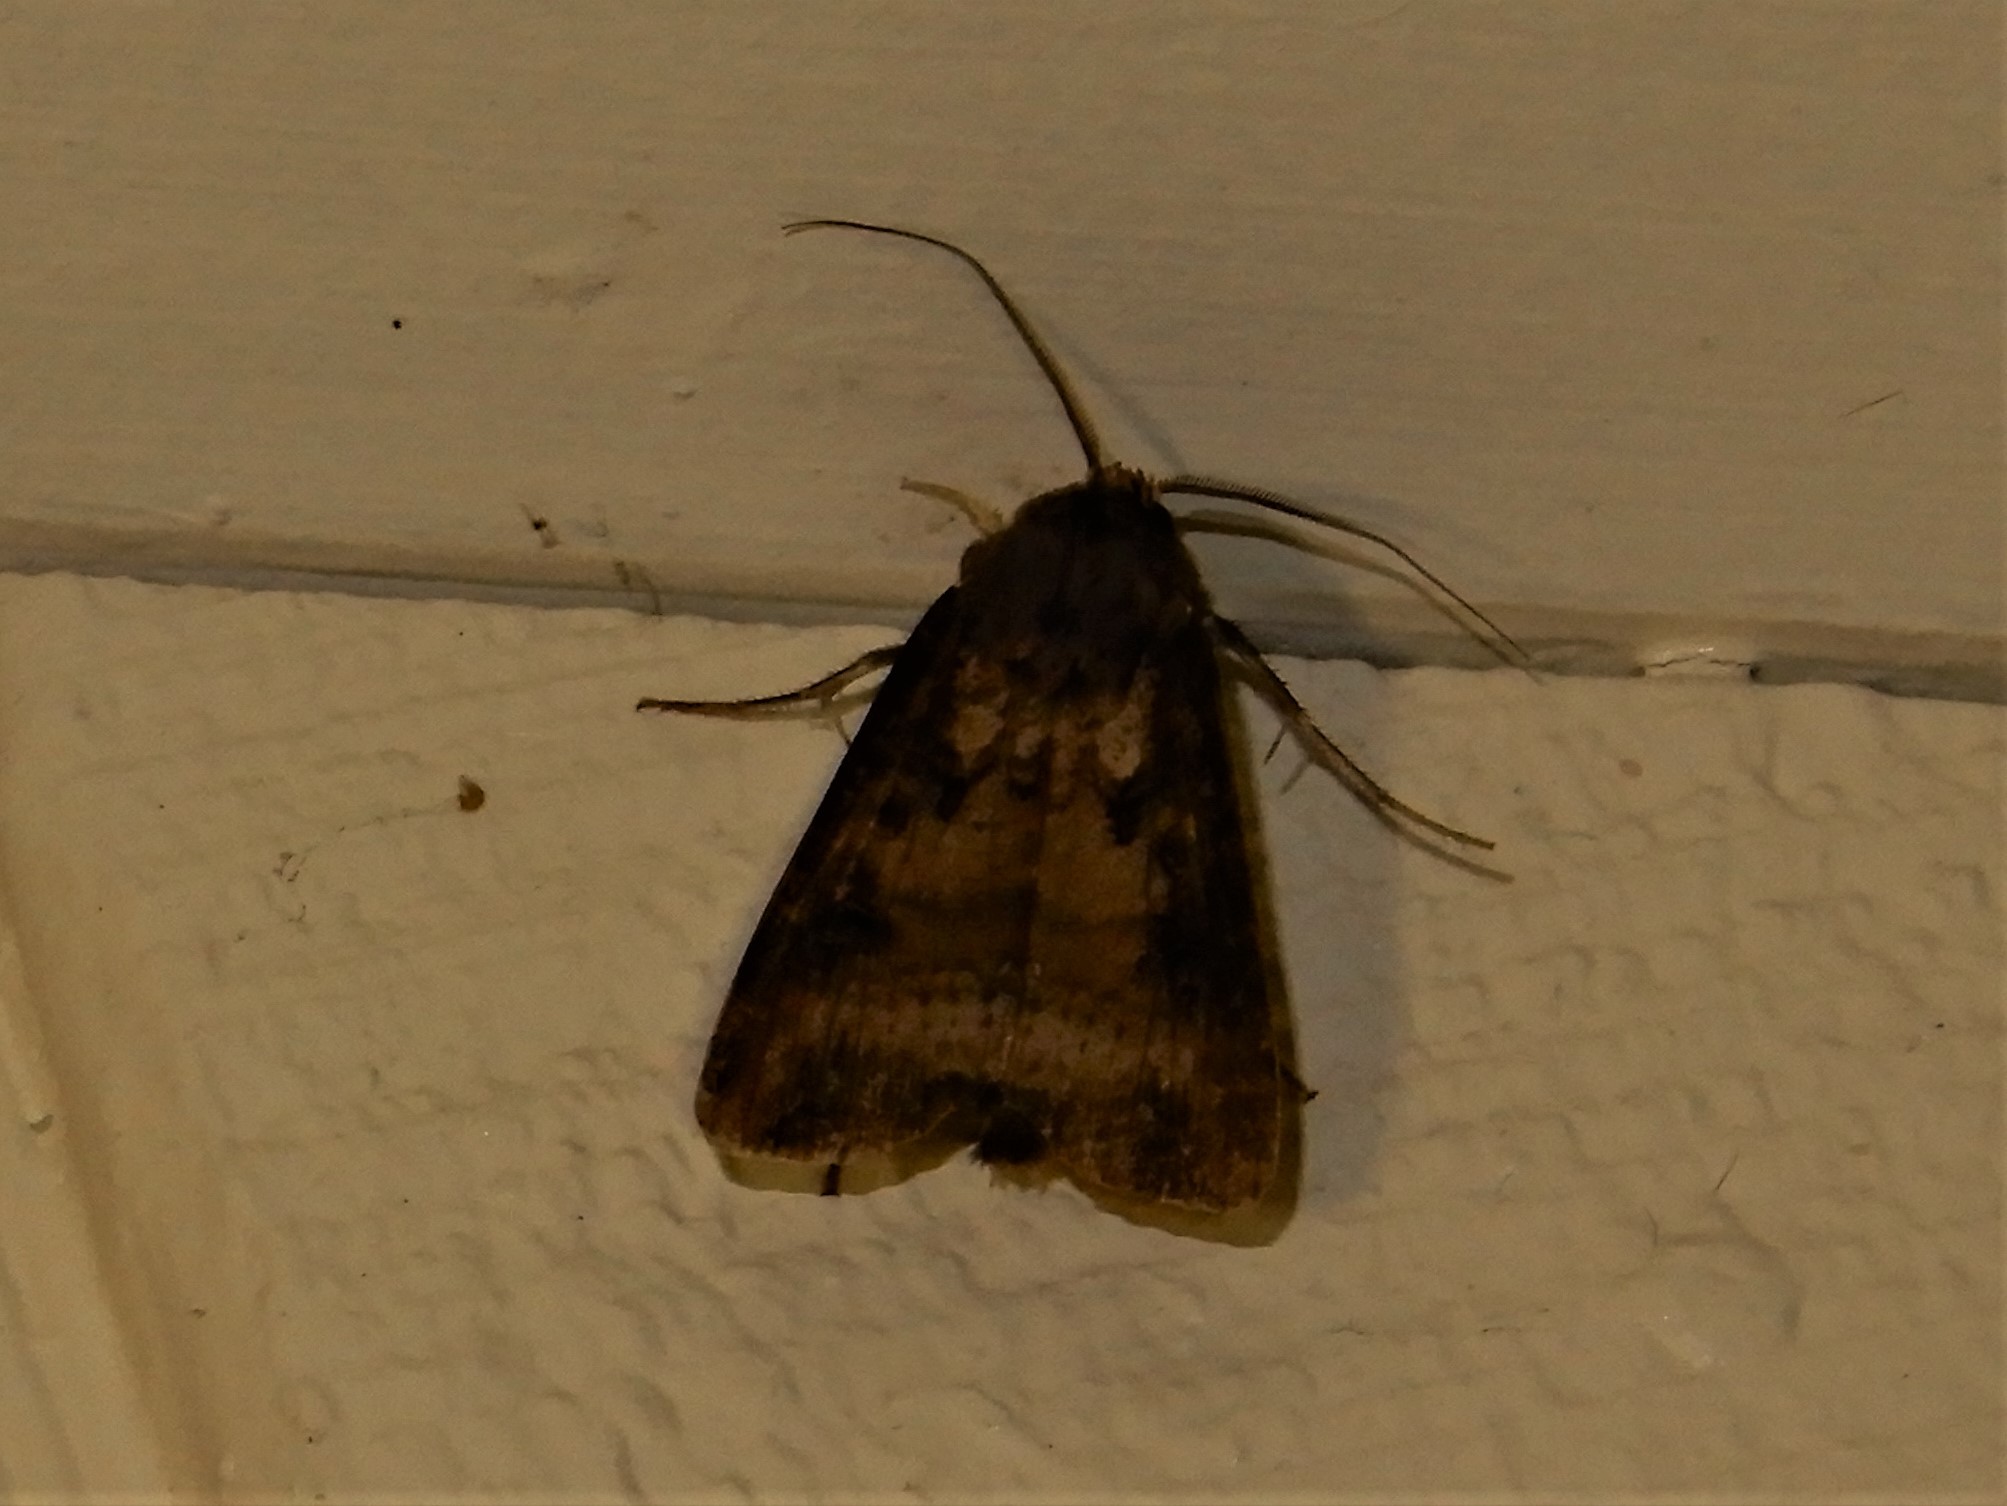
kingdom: Animalia
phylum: Arthropoda
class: Insecta
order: Lepidoptera
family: Noctuidae
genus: Agrotis
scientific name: Agrotis ipsilon
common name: Dark sword-grass
